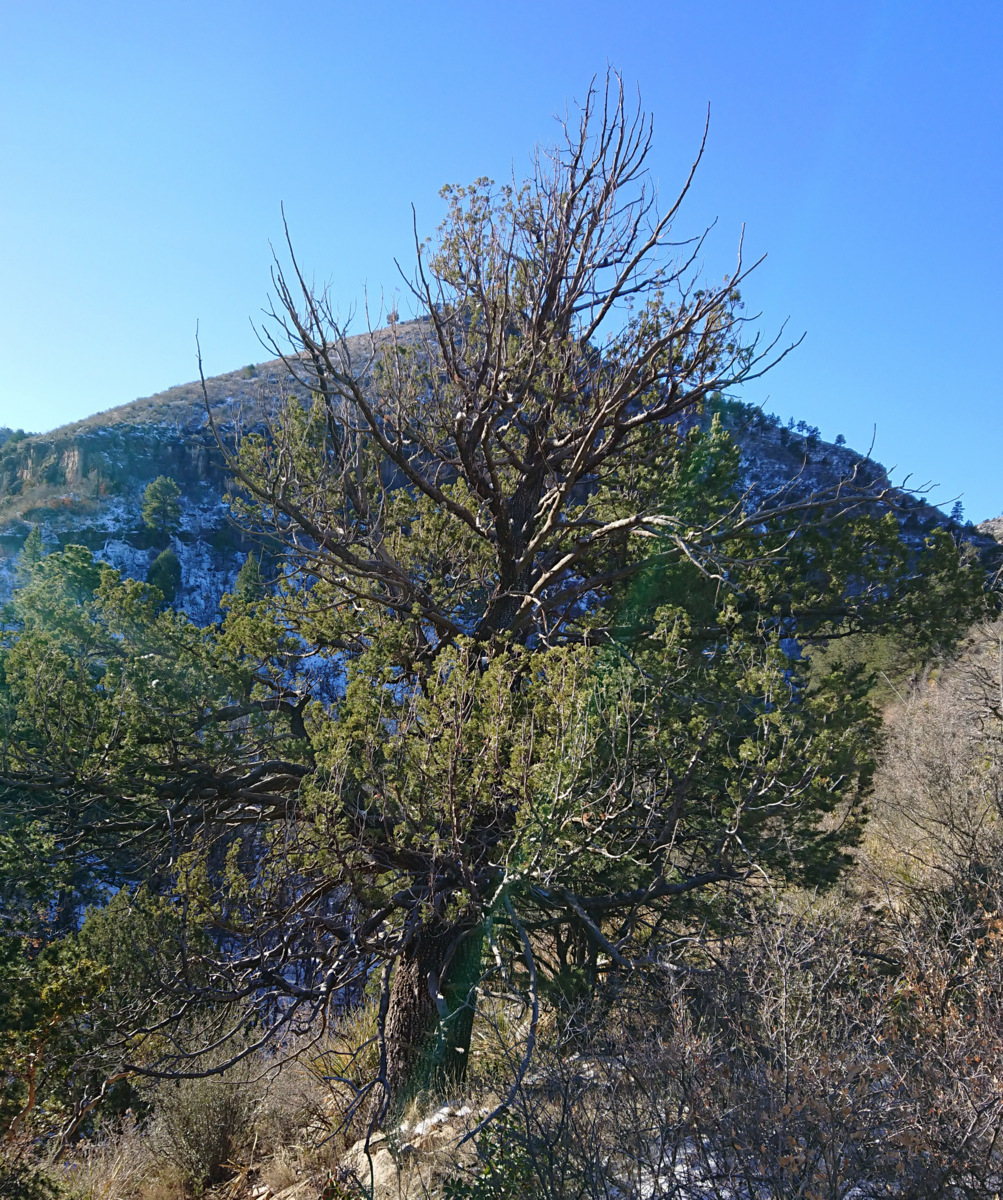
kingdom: Plantae
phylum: Tracheophyta
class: Pinopsida
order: Pinales
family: Cupressaceae
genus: Juniperus
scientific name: Juniperus deppeana
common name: Alligator juniper
